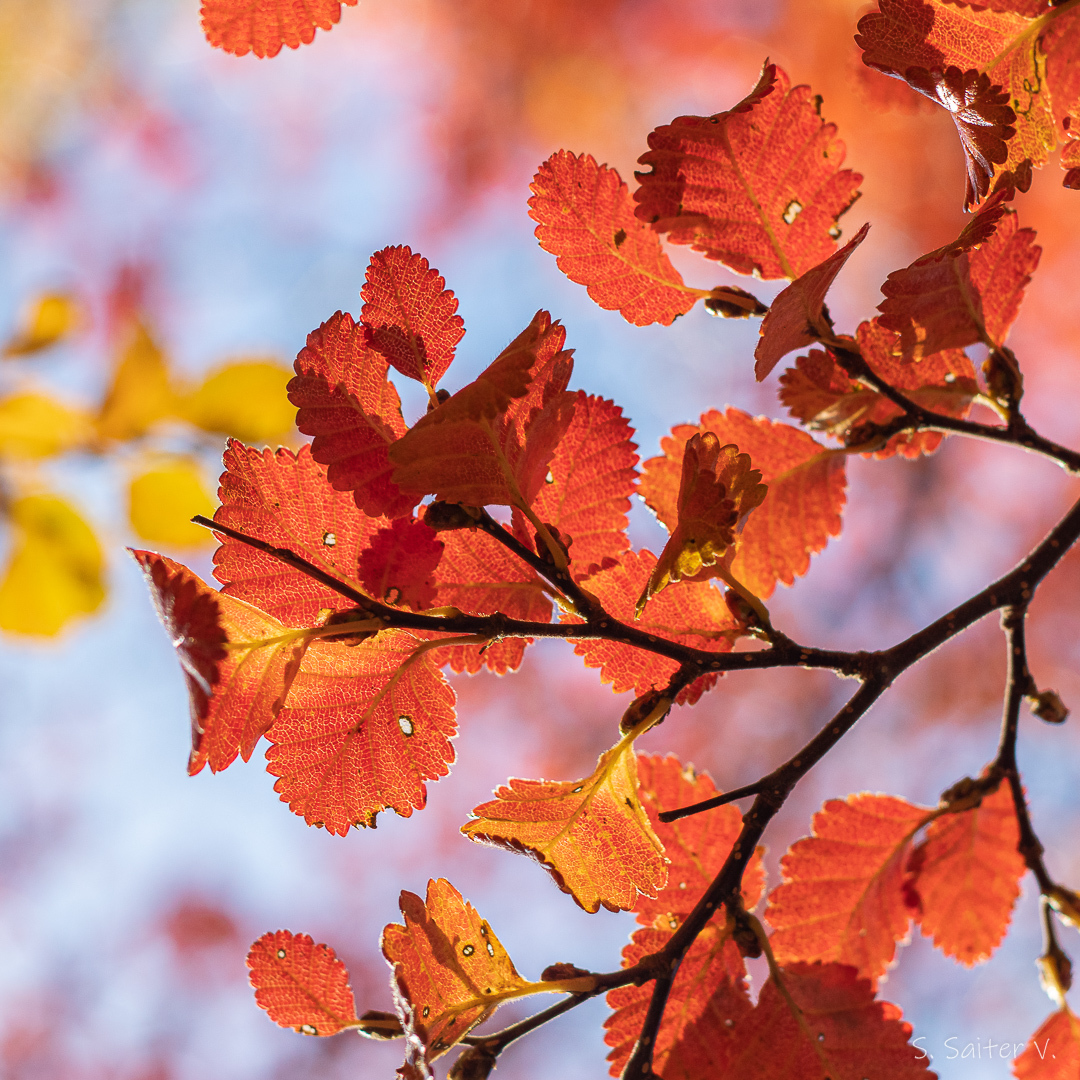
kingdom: Plantae
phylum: Tracheophyta
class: Magnoliopsida
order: Fagales
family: Nothofagaceae
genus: Nothofagus
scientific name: Nothofagus pumilio
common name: Lenga beech
